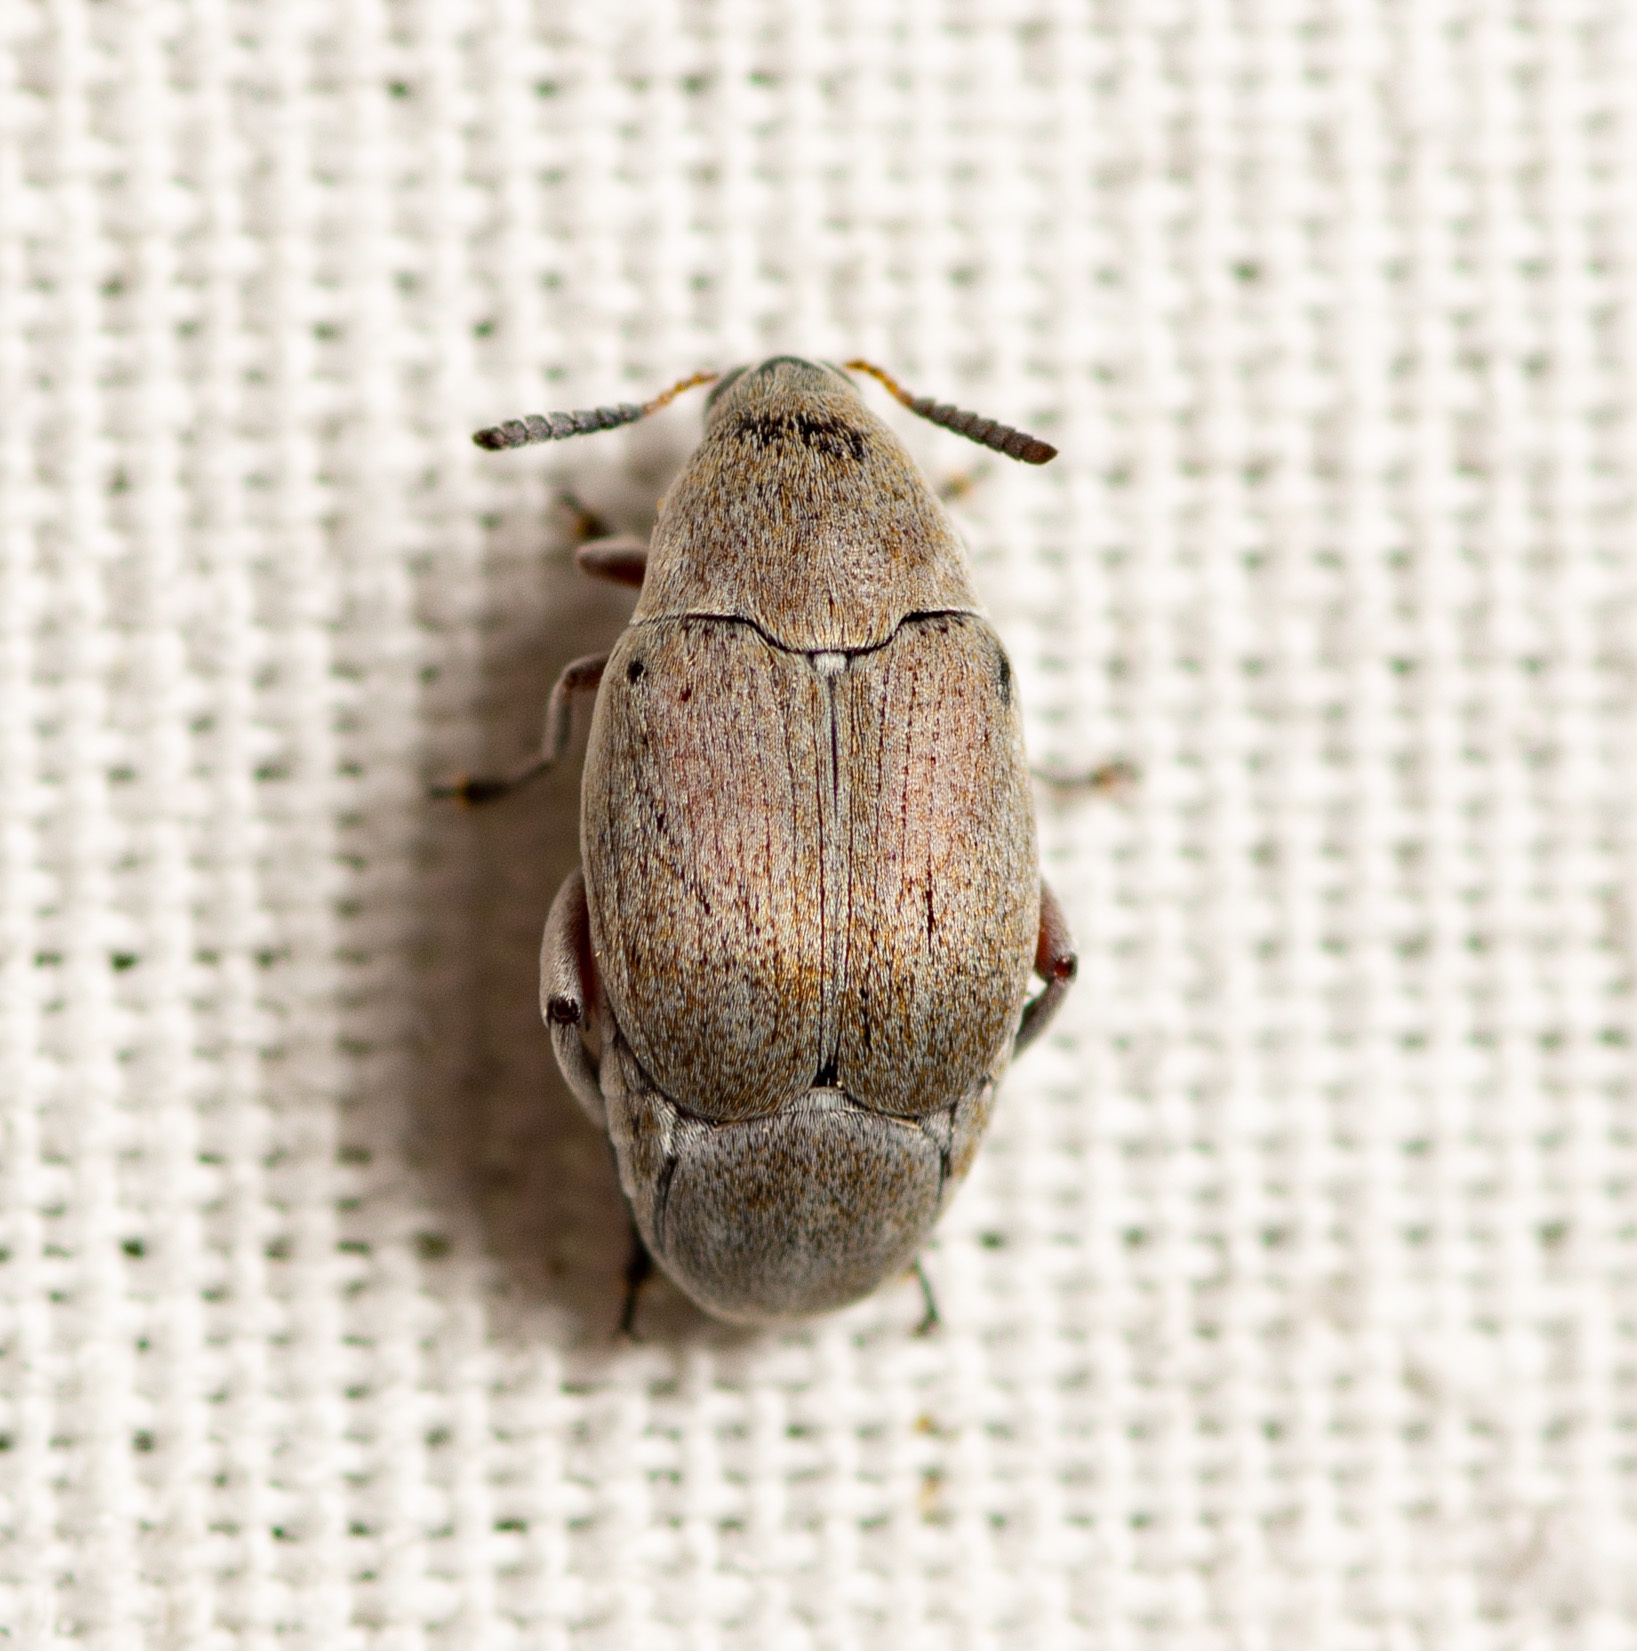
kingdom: Animalia
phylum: Arthropoda
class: Insecta
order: Coleoptera
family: Chrysomelidae
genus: Mimosestes
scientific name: Mimosestes amicus
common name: Leaf beetle
